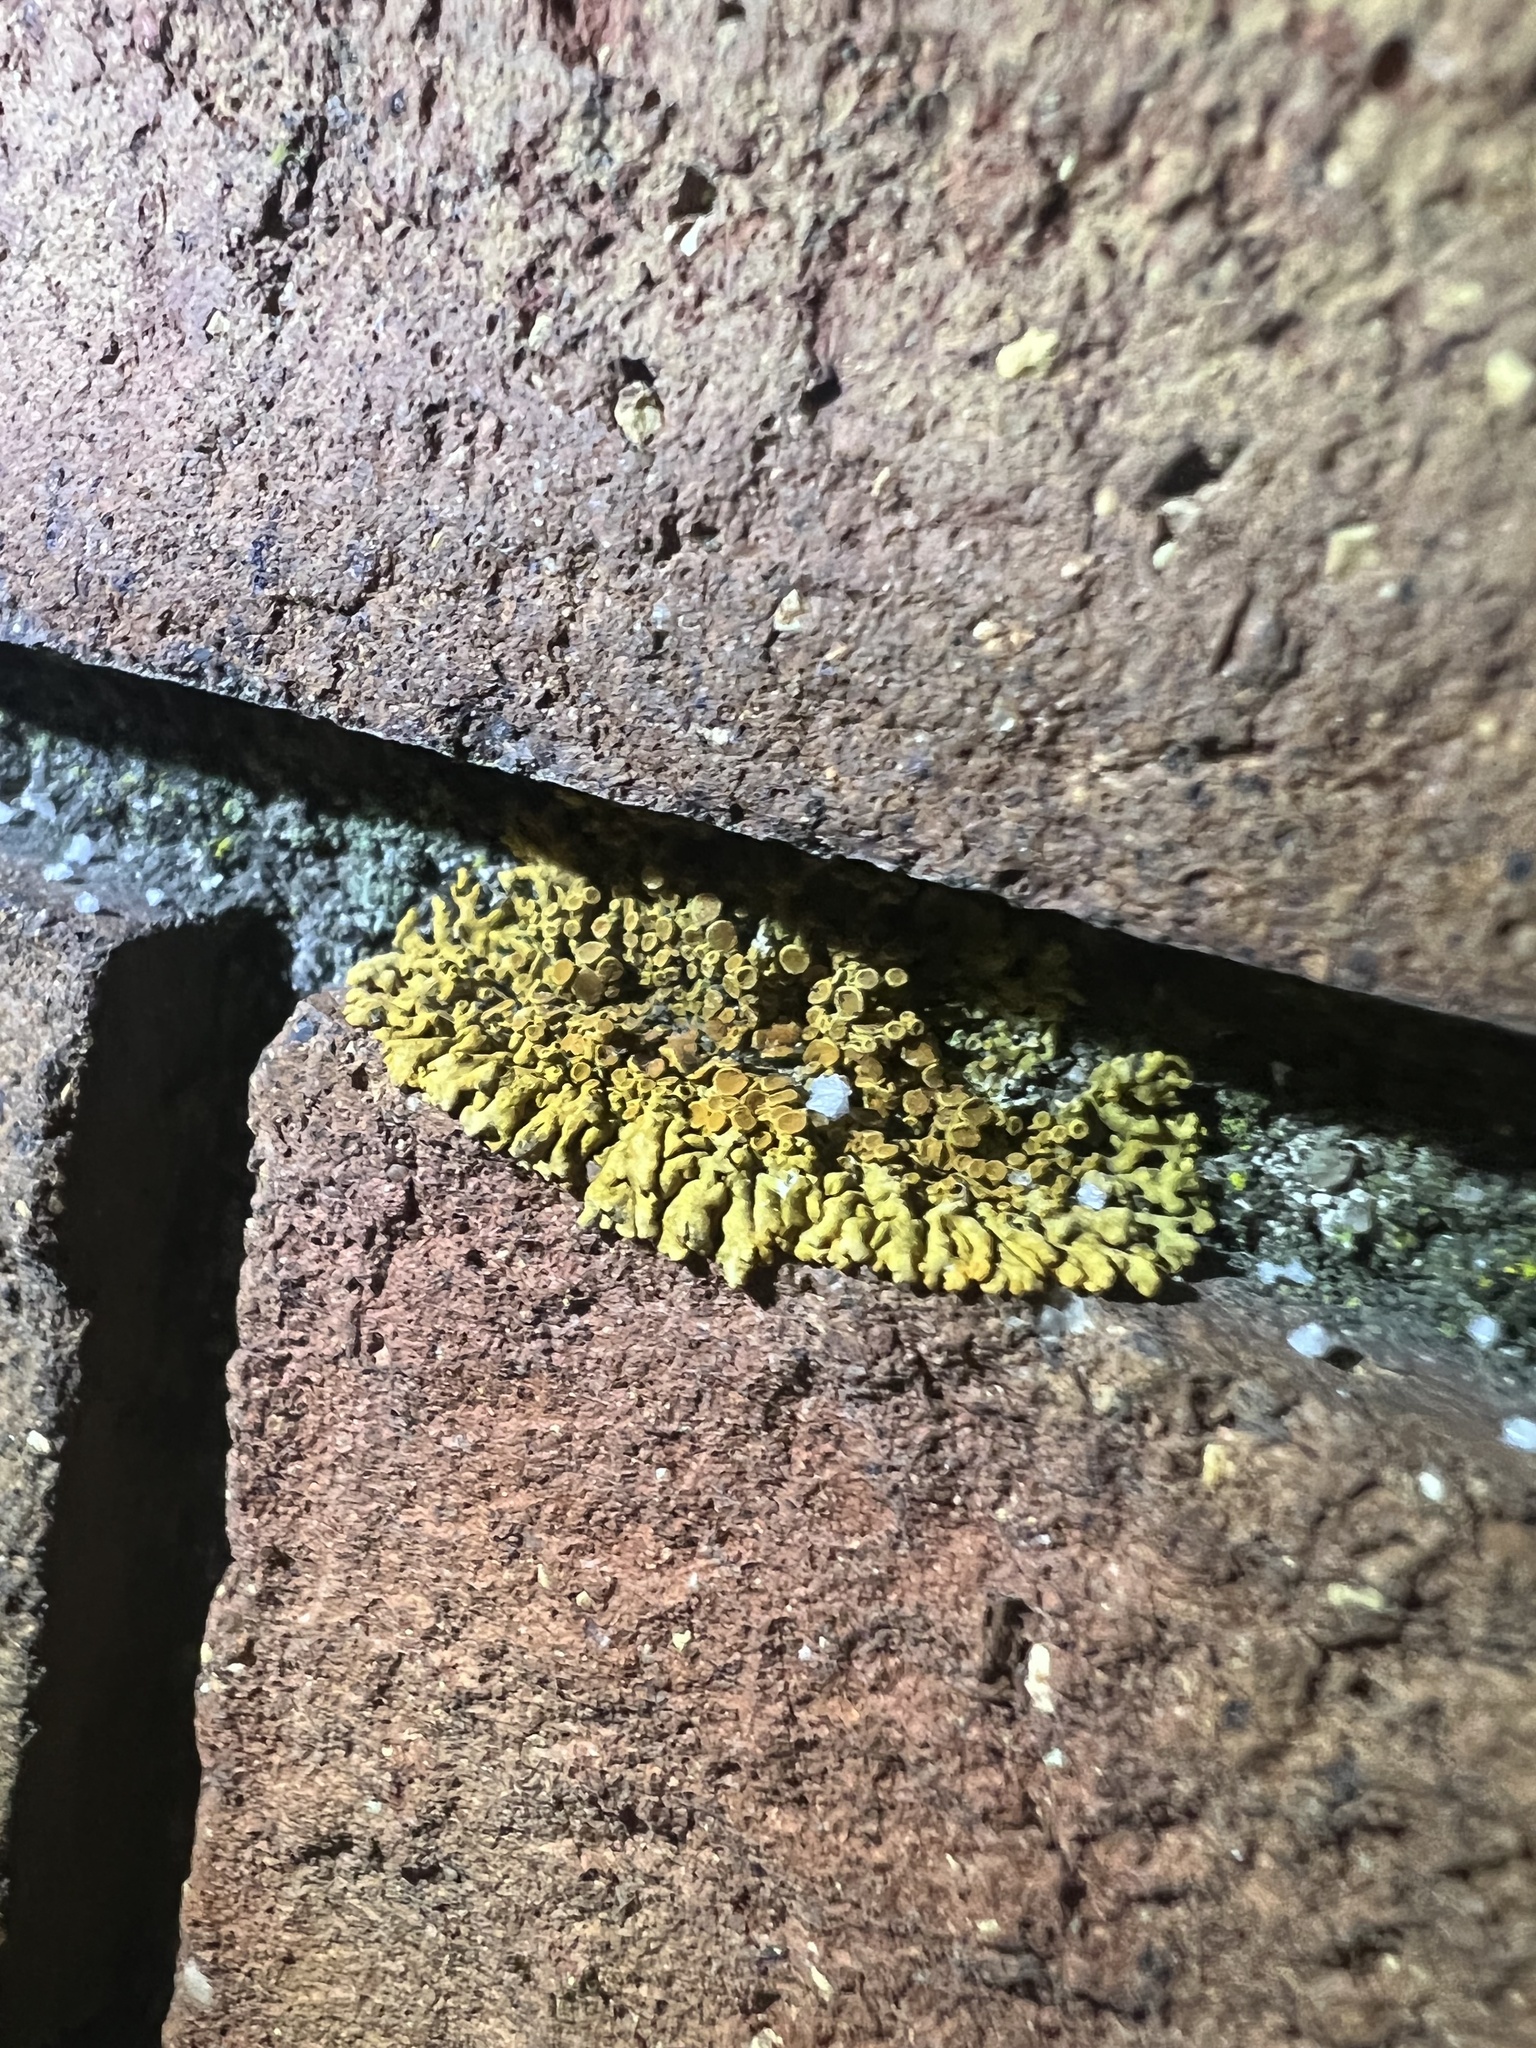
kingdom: Fungi
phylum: Ascomycota
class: Lecanoromycetes
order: Teloschistales
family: Teloschistaceae
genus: Xanthoria
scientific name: Xanthoria elegans
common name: Elegant sunburst lichen
